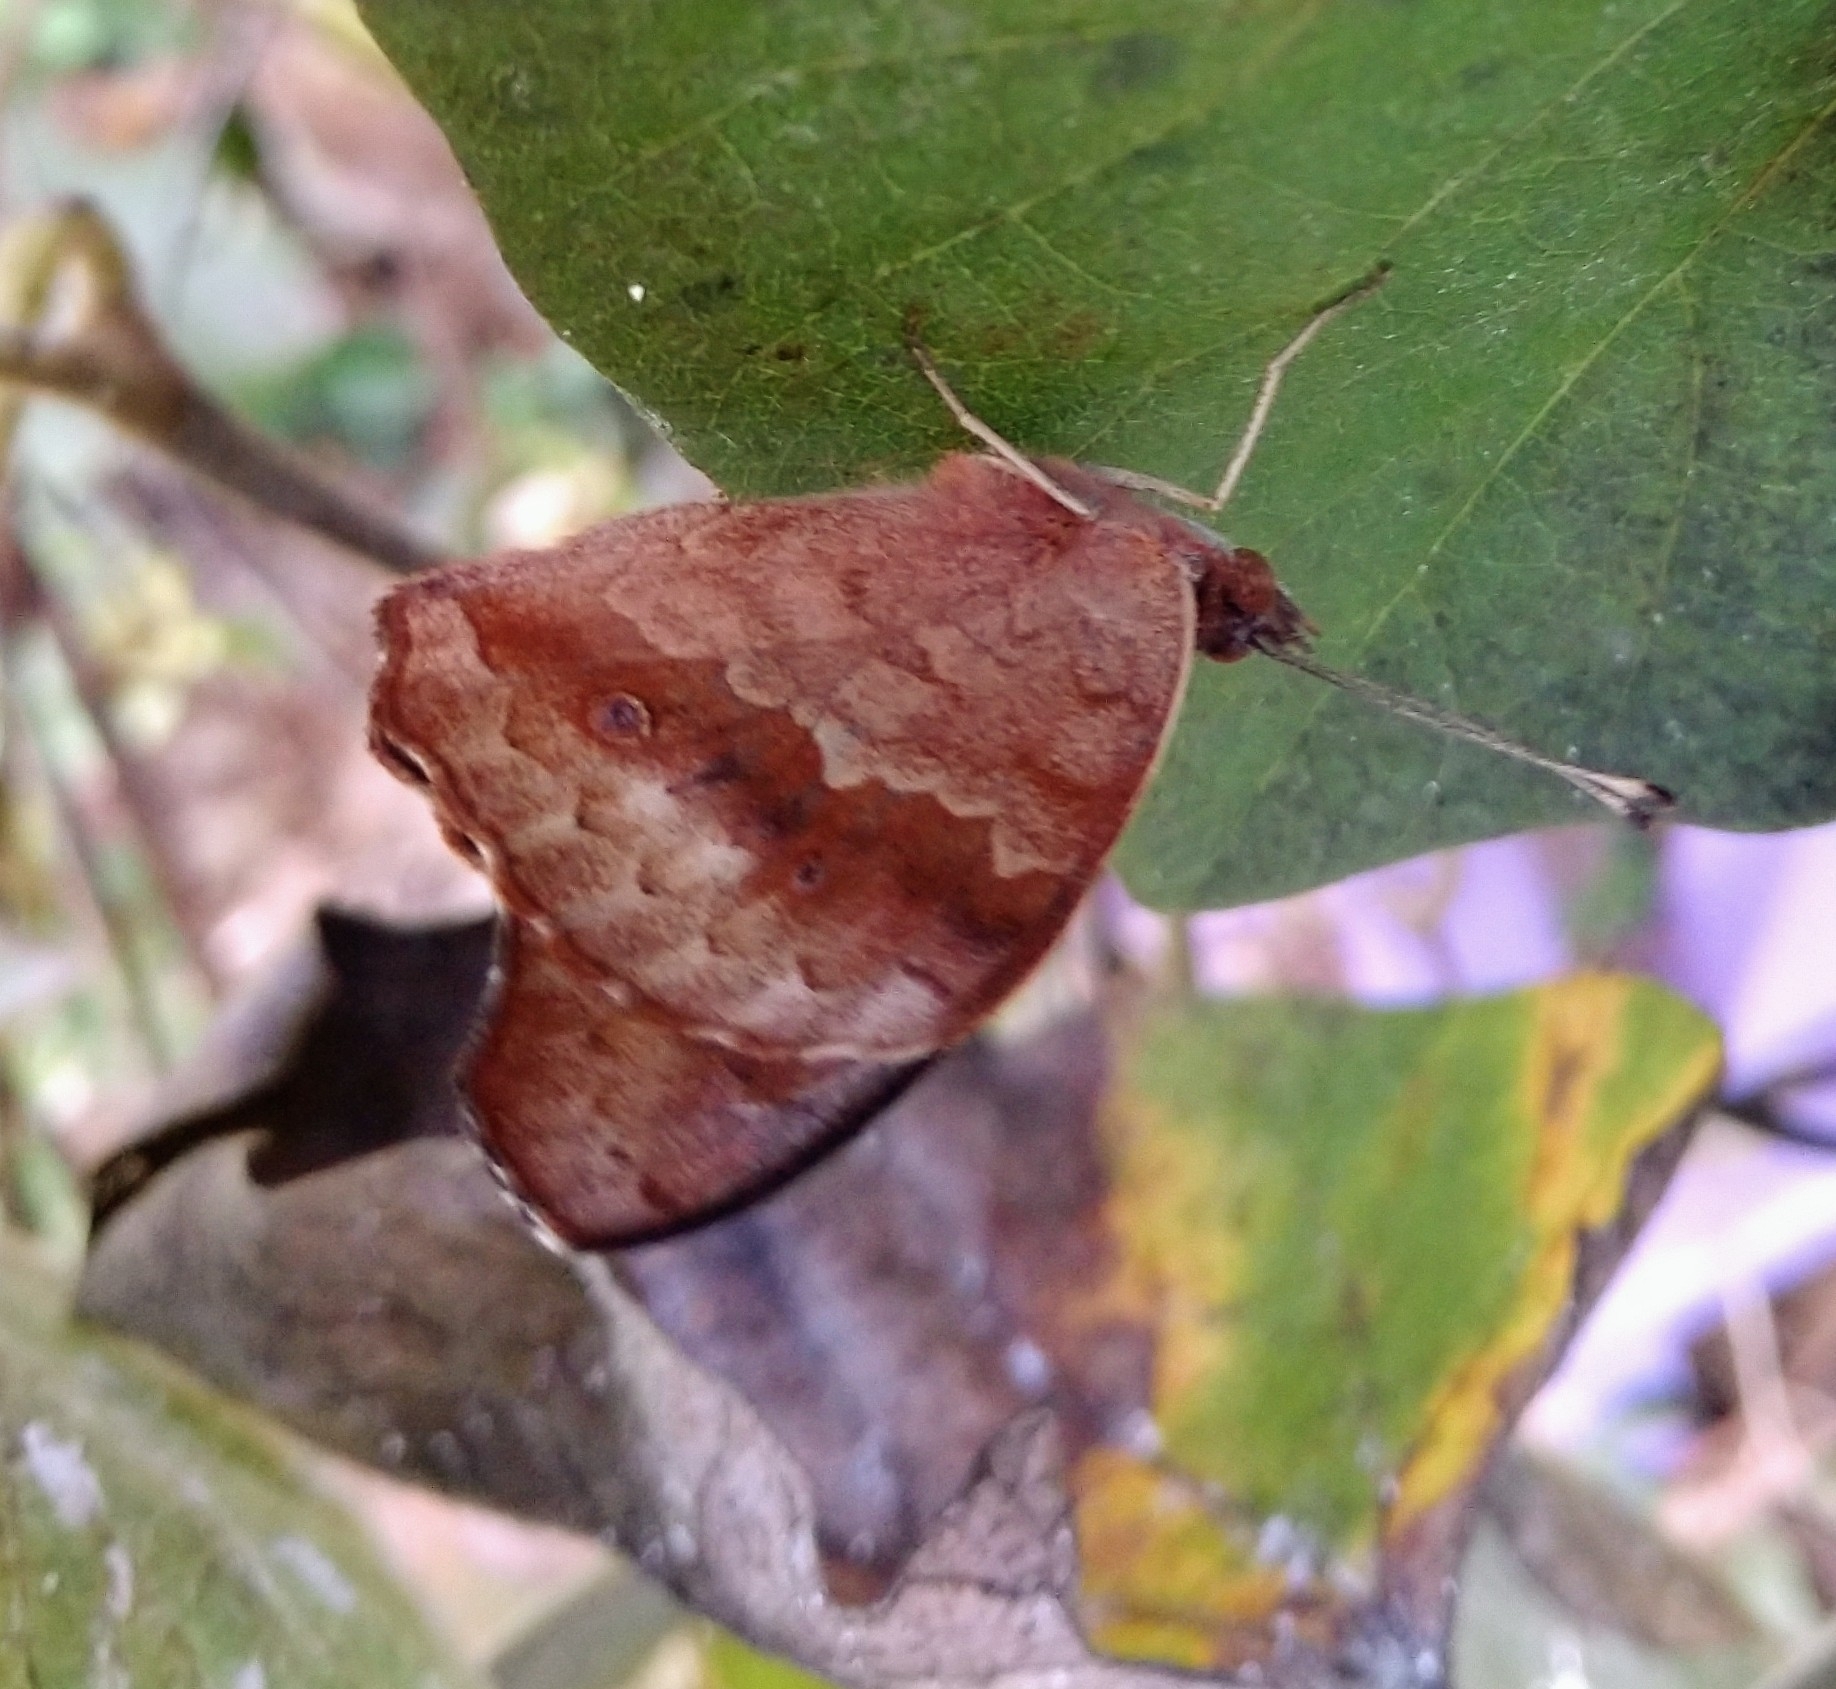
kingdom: Animalia
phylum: Arthropoda
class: Insecta
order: Lepidoptera
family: Nymphalidae
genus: Junonia
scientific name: Junonia coenia
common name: Common buckeye
